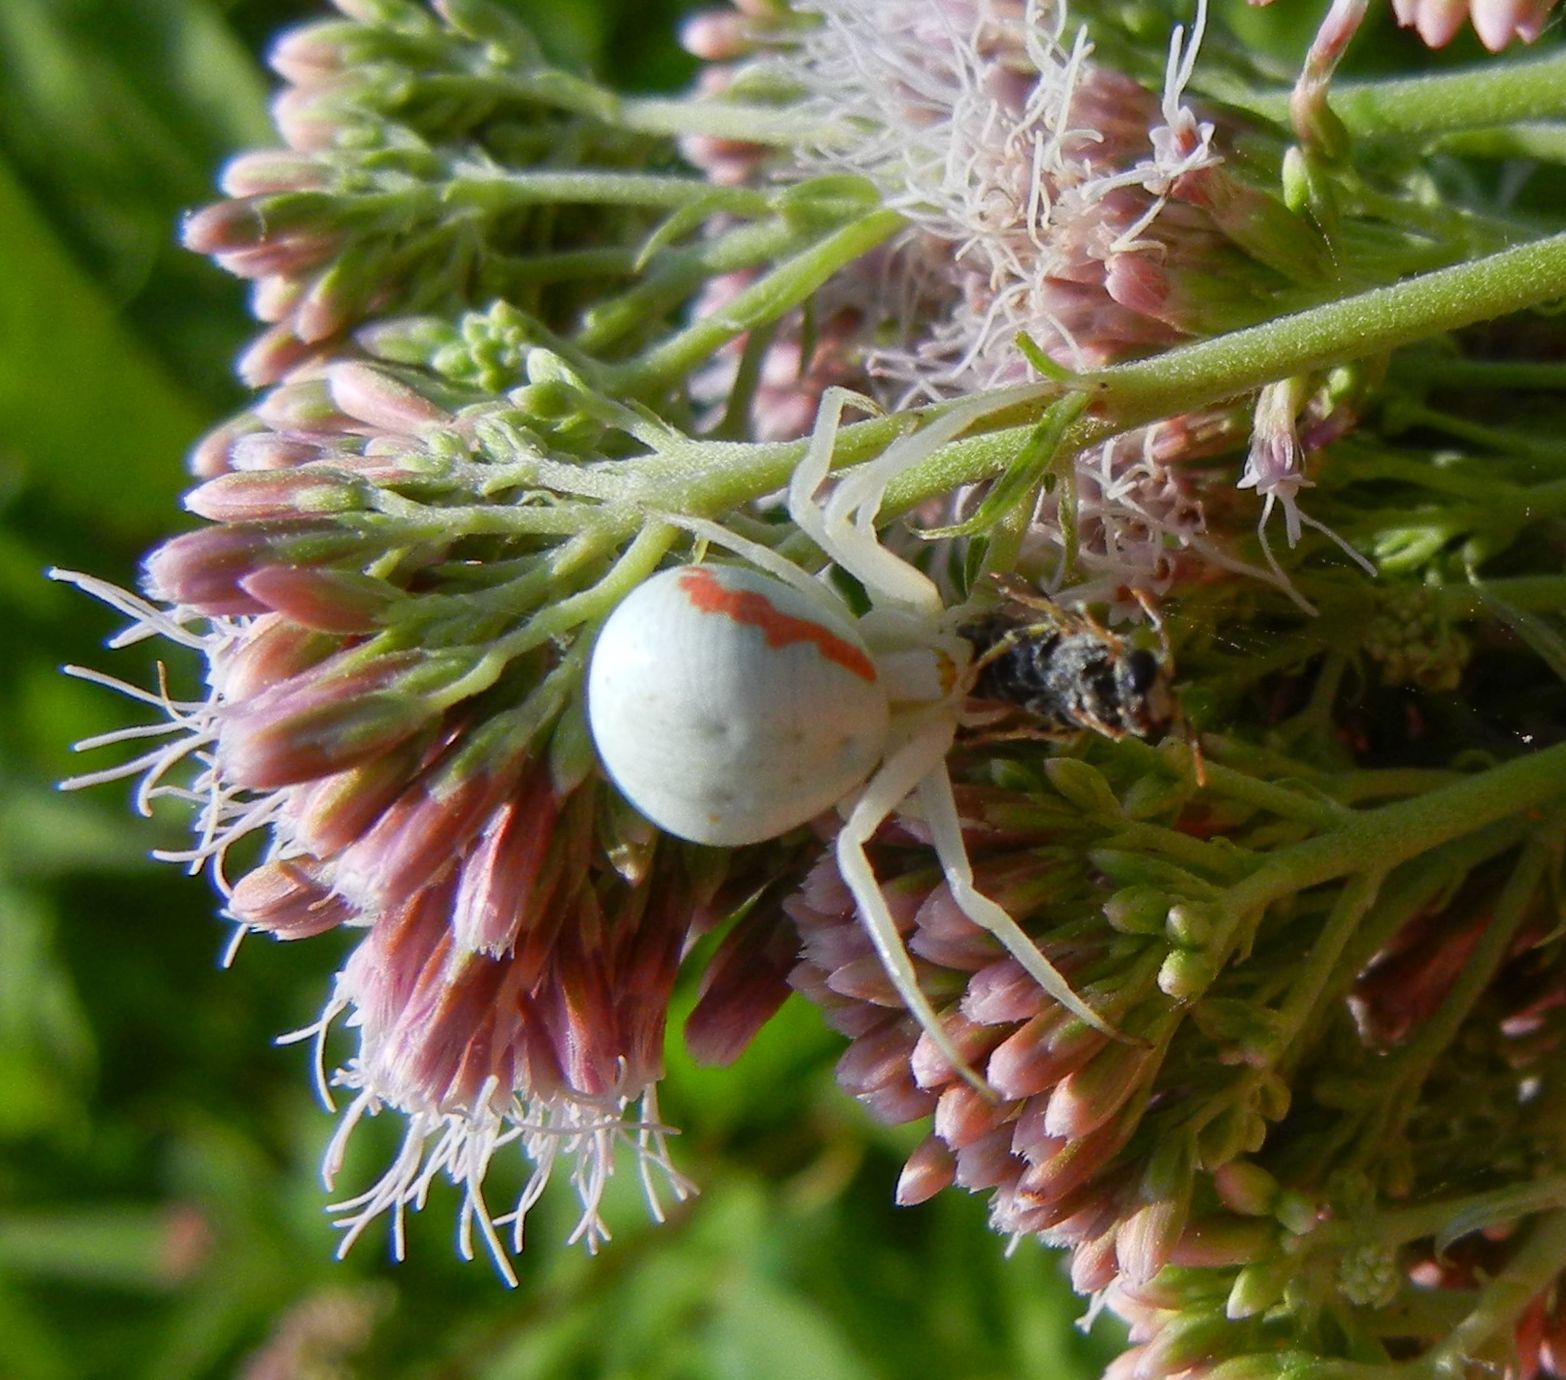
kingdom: Animalia
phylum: Arthropoda
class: Arachnida
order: Araneae
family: Thomisidae
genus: Misumena
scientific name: Misumena vatia
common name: Goldenrod crab spider
